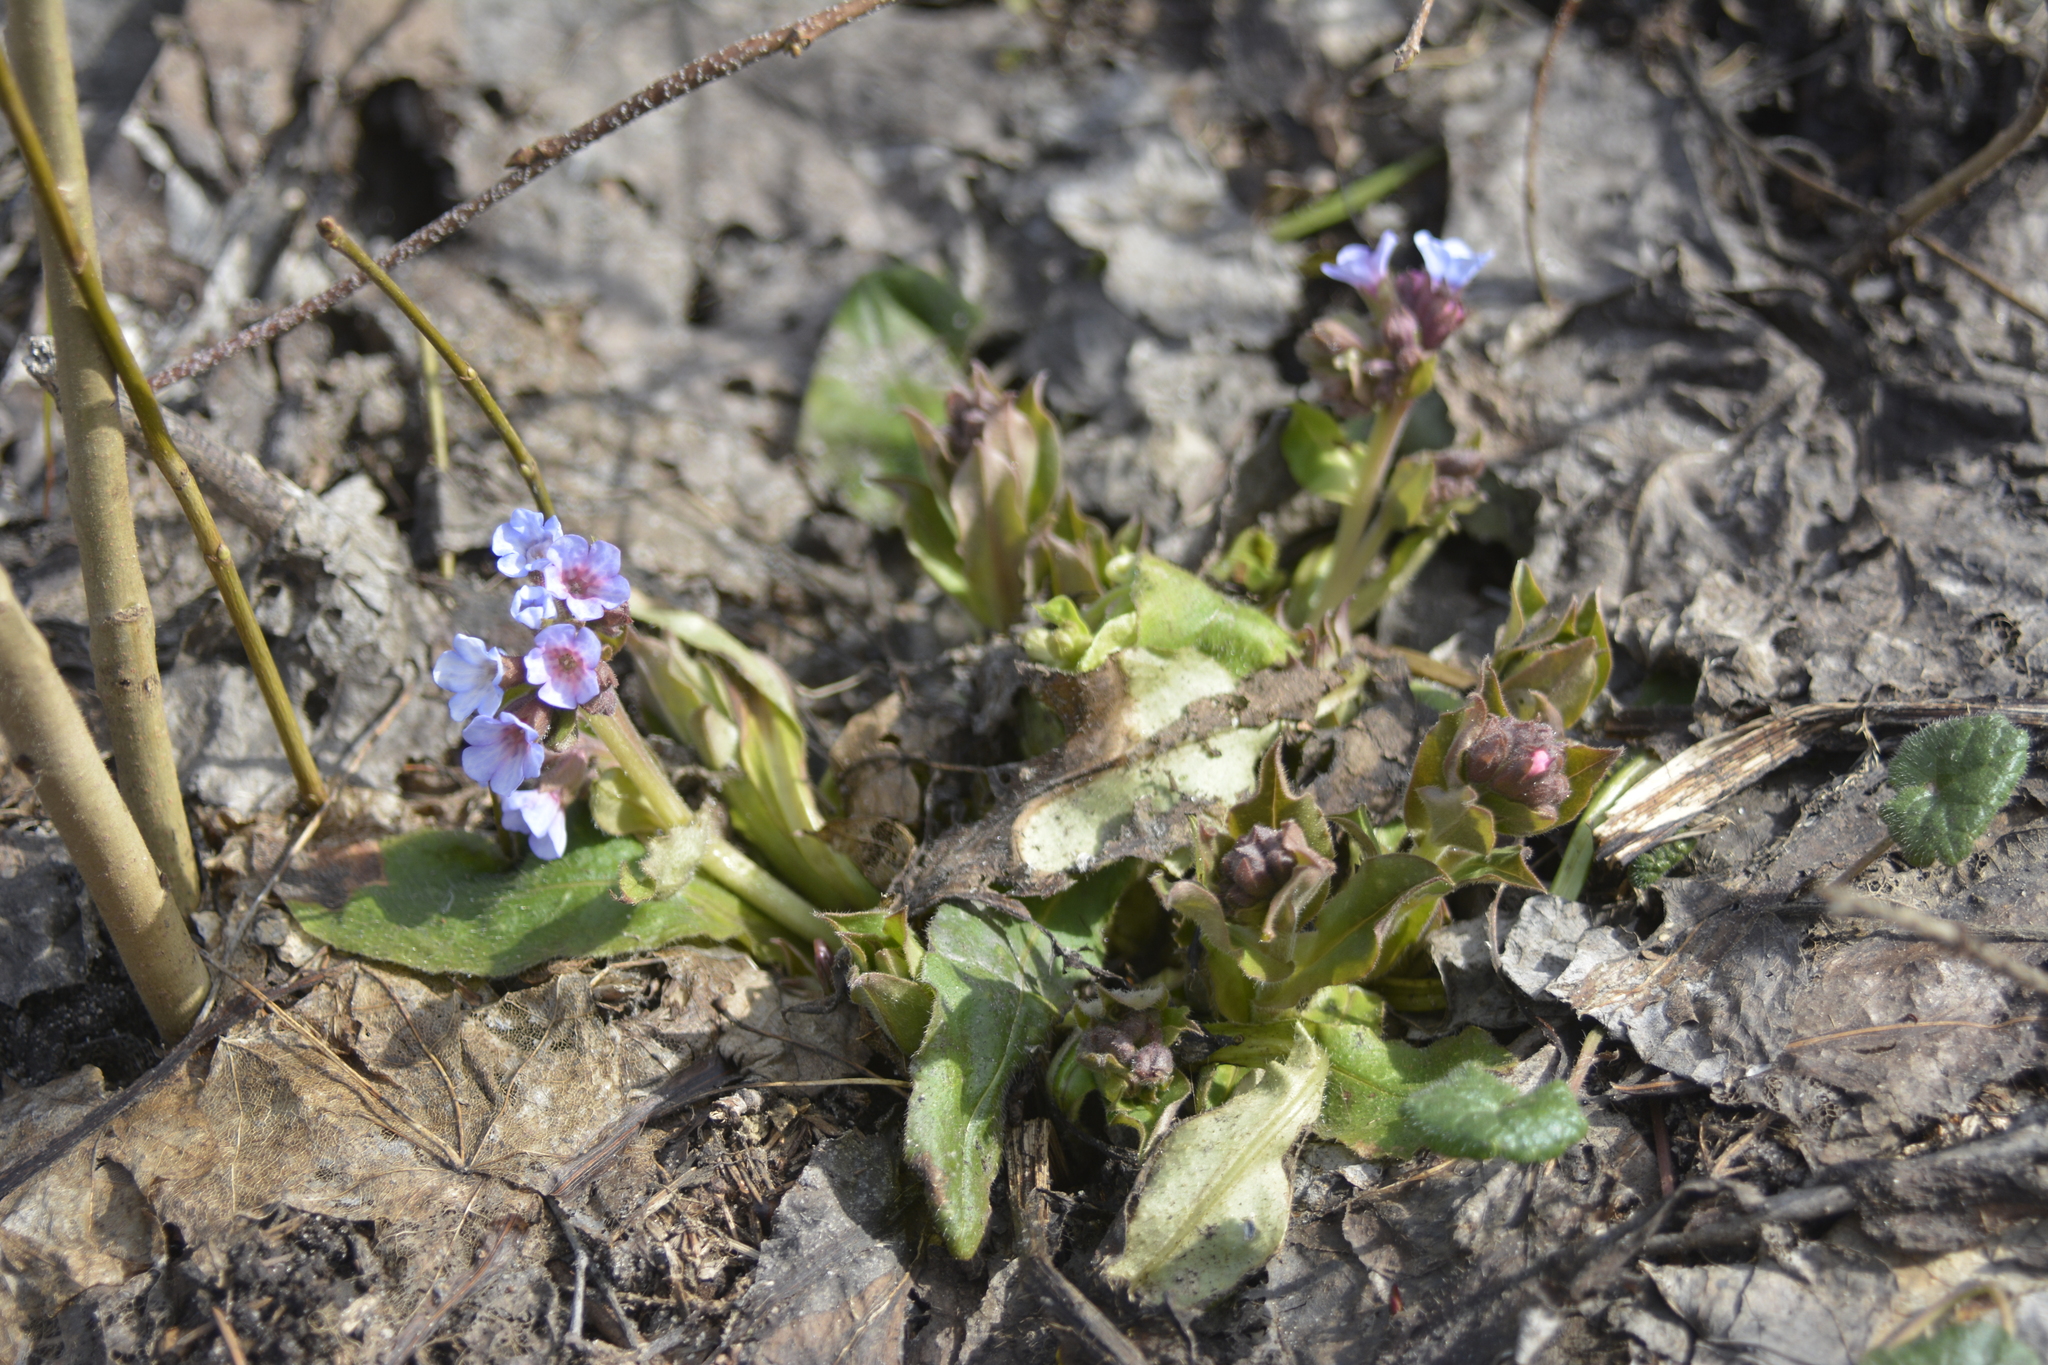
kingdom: Plantae
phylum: Tracheophyta
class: Magnoliopsida
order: Boraginales
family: Boraginaceae
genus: Pulmonaria
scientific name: Pulmonaria obscura
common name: Suffolk lungwort
